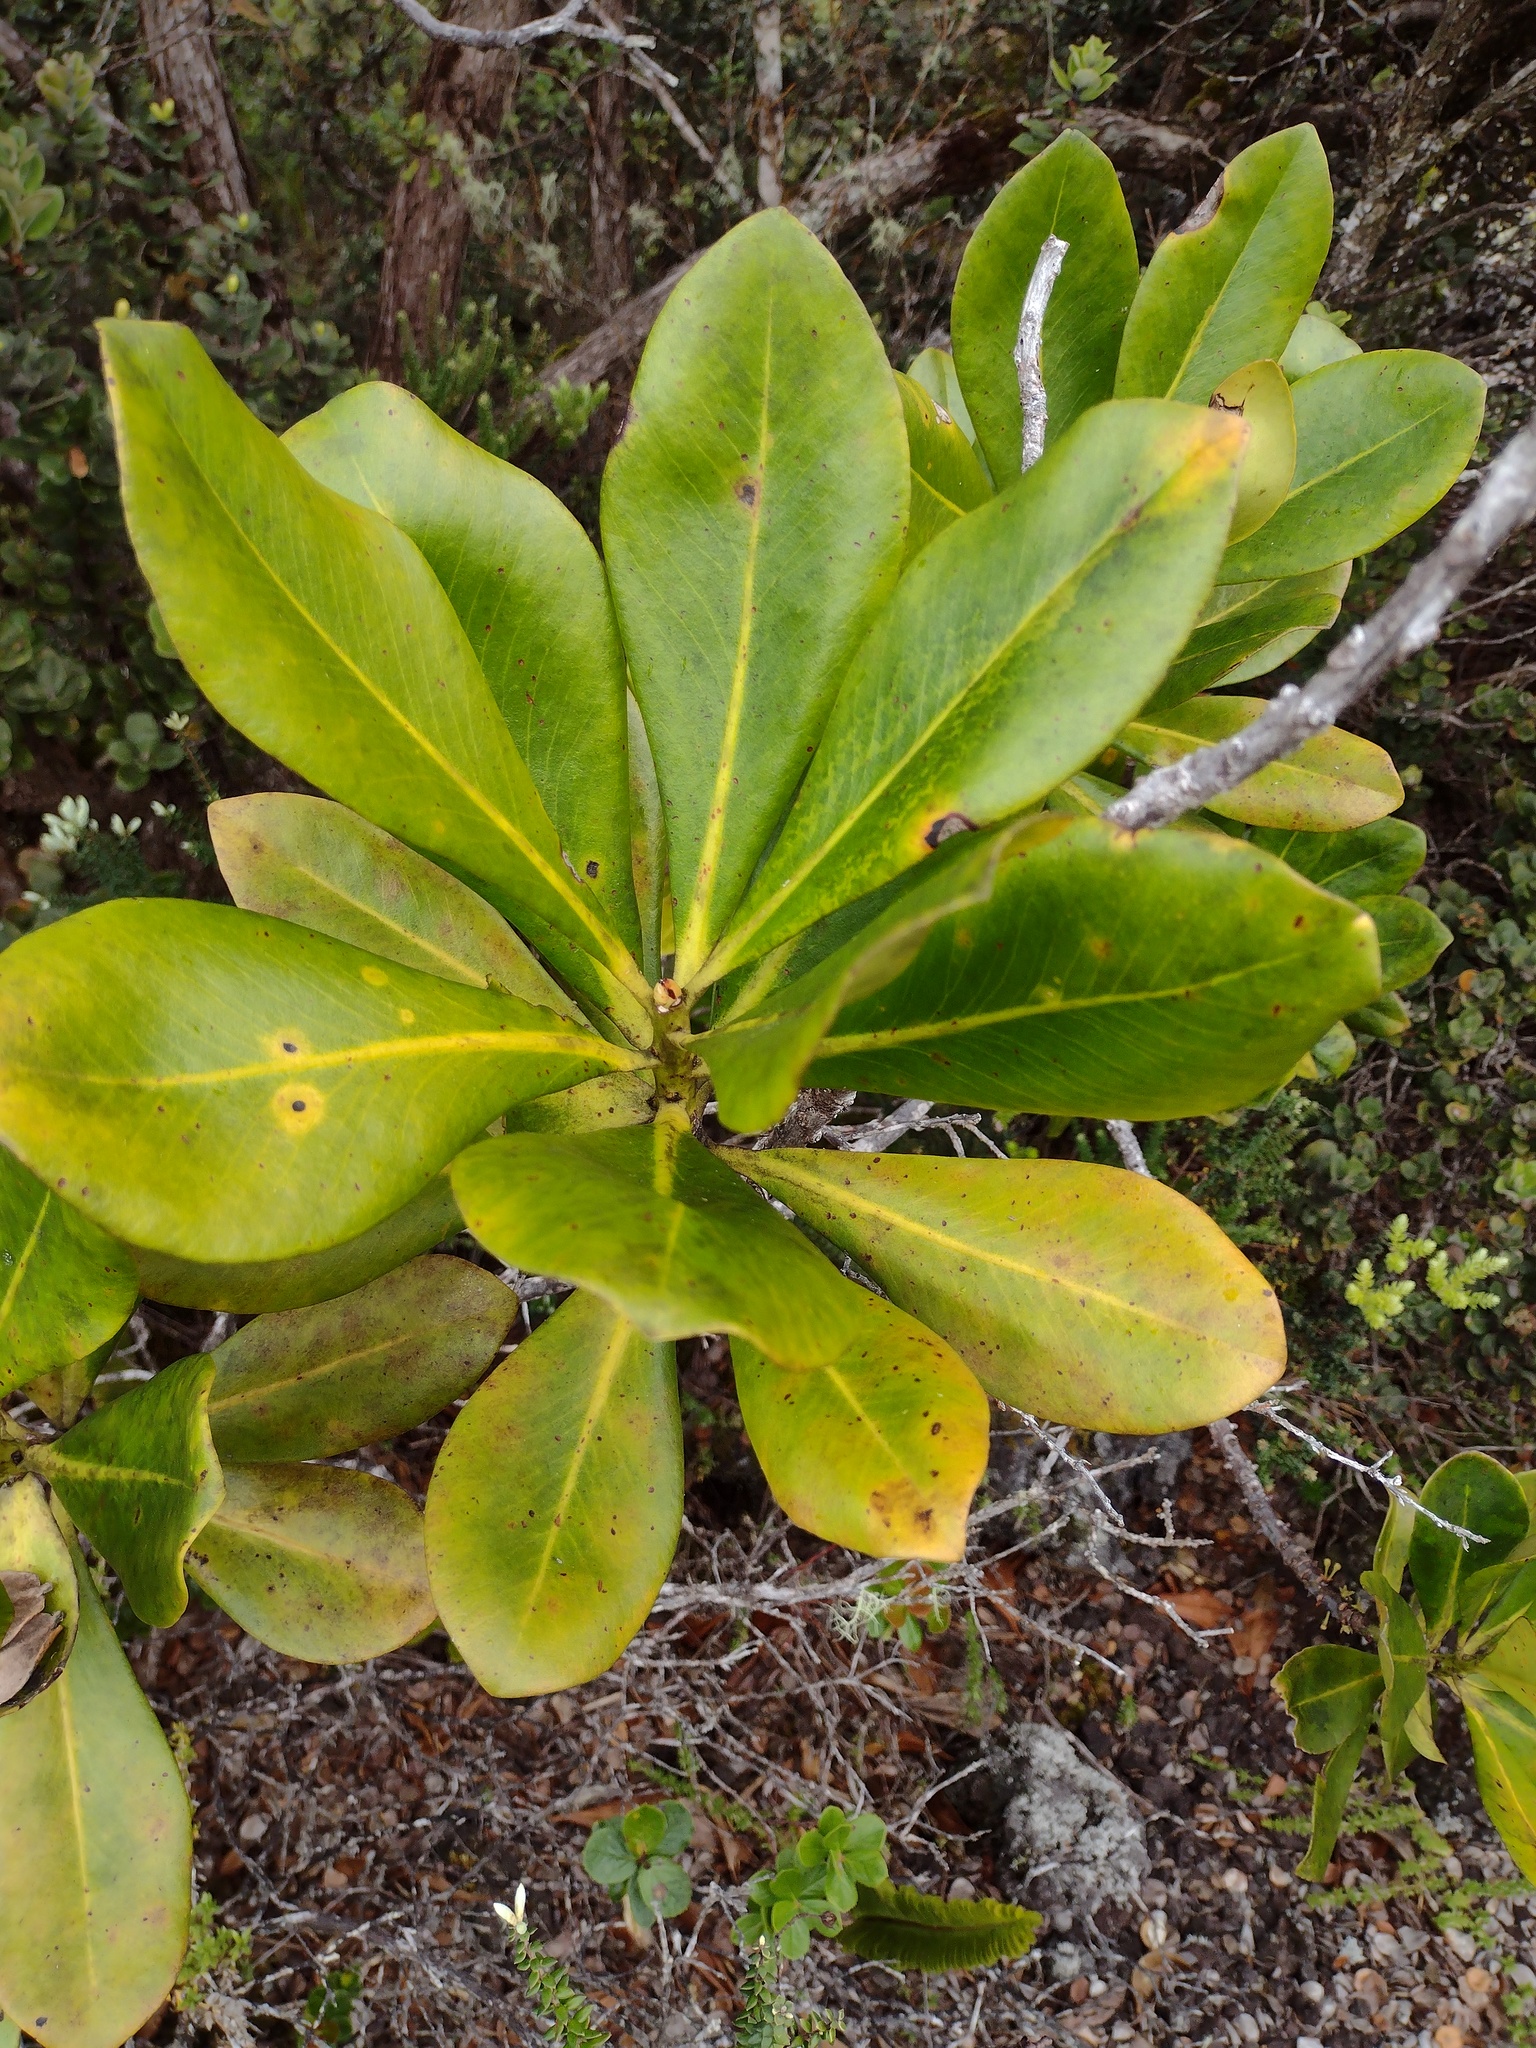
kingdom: Plantae
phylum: Tracheophyta
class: Magnoliopsida
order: Ericales
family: Primulaceae
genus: Myrsine
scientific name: Myrsine lessertiana
